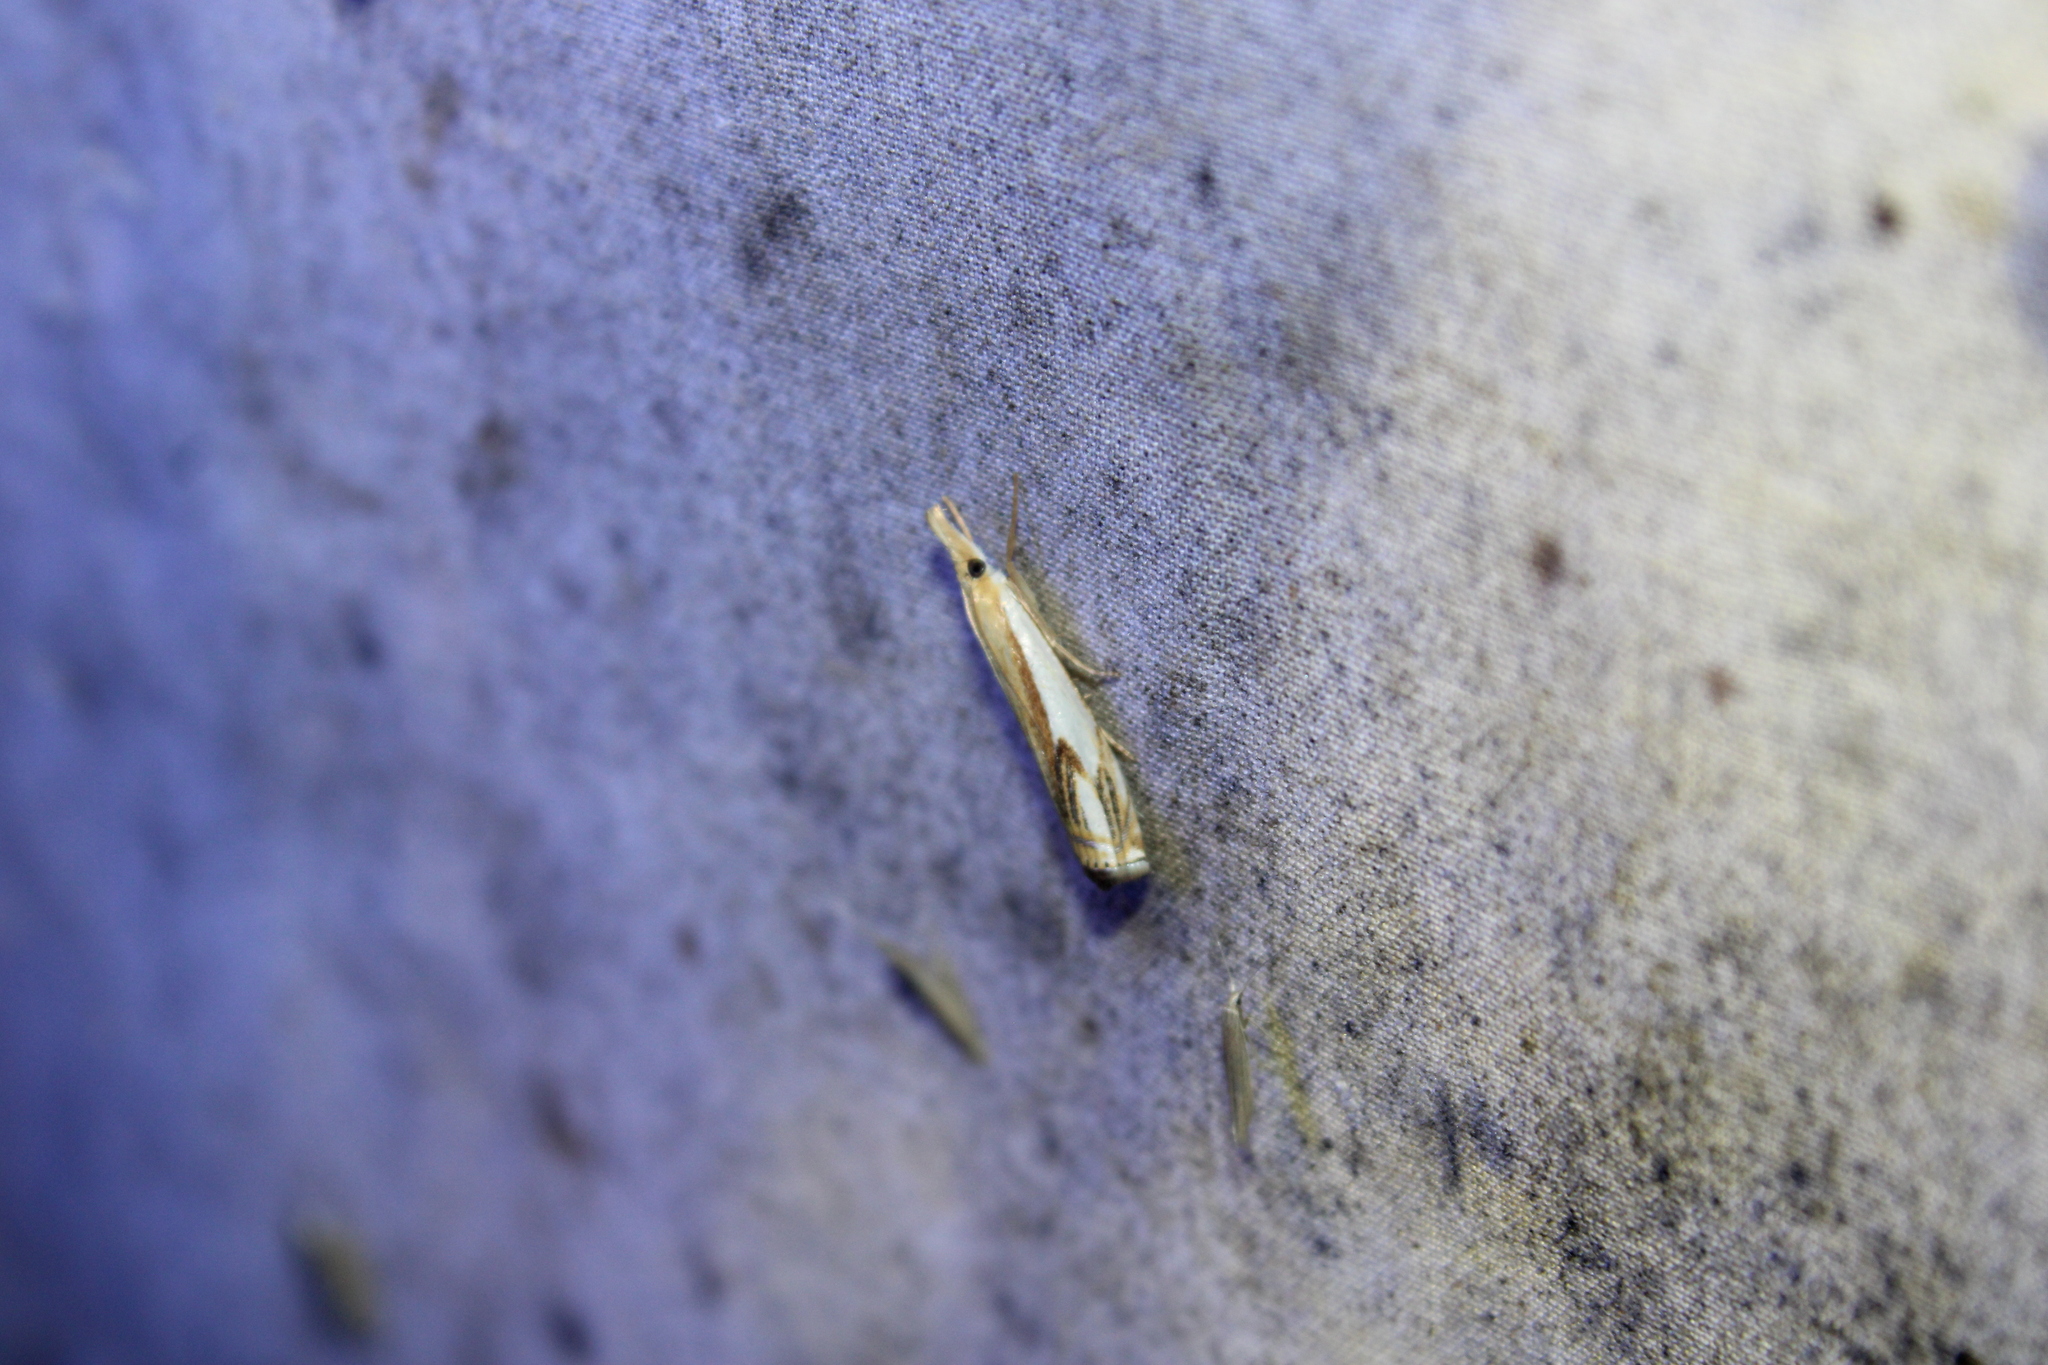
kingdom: Animalia
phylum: Arthropoda
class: Insecta
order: Lepidoptera
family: Crambidae
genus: Crambus
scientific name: Crambus agitatellus
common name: Double-banded grass-veneer
